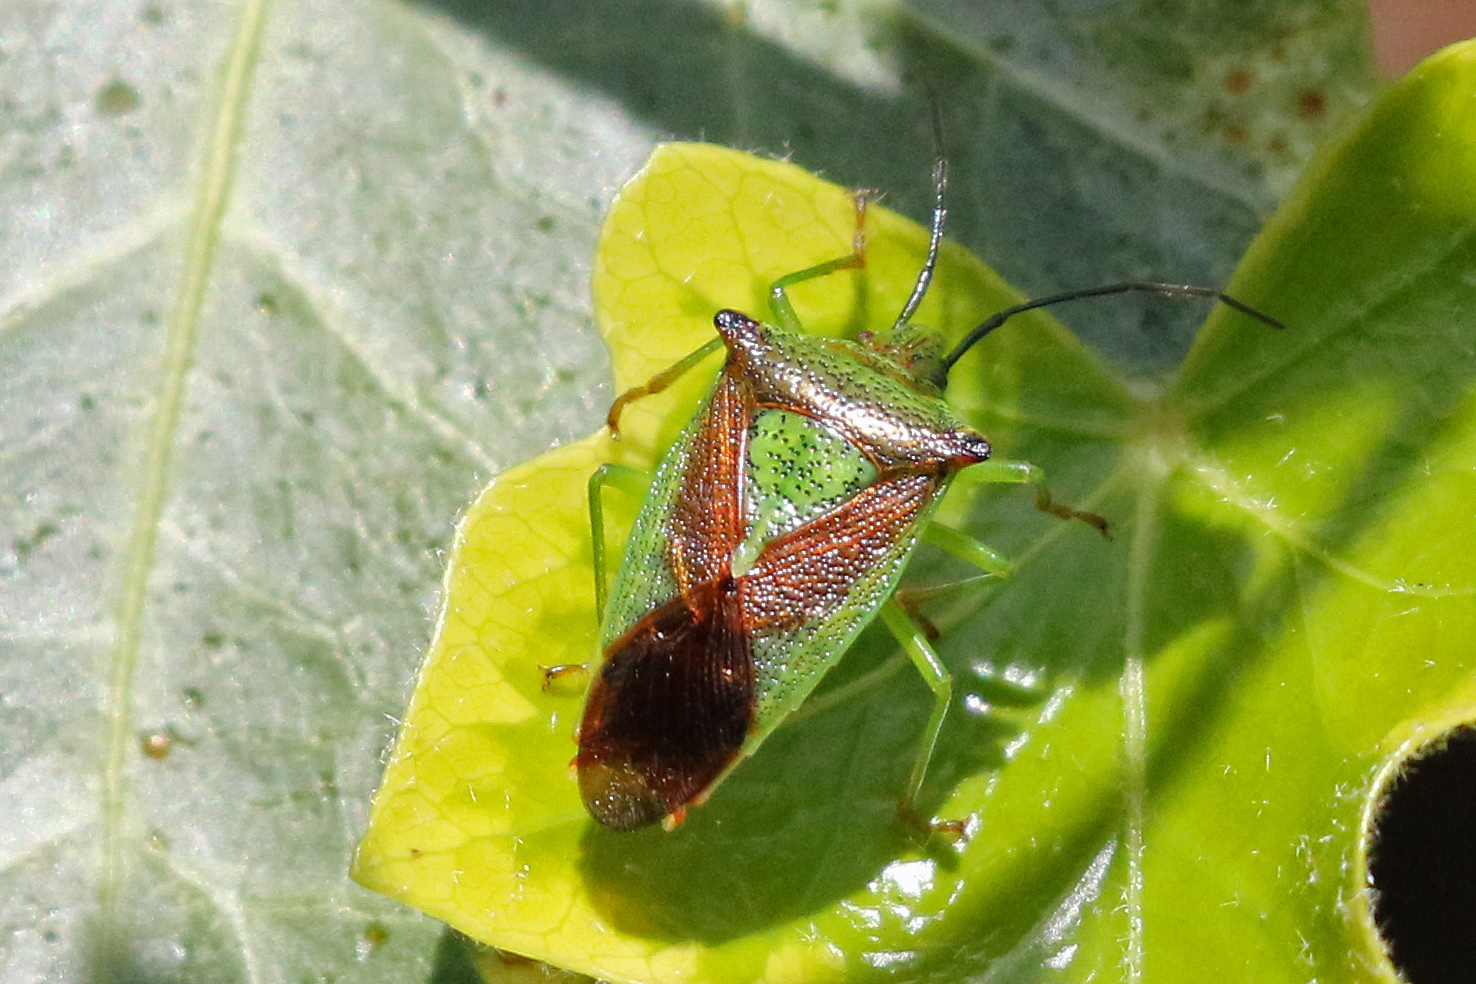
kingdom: Animalia
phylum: Arthropoda
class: Insecta
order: Hemiptera
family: Acanthosomatidae
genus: Acanthosoma
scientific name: Acanthosoma haemorrhoidale
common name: Hawthorn shieldbug
